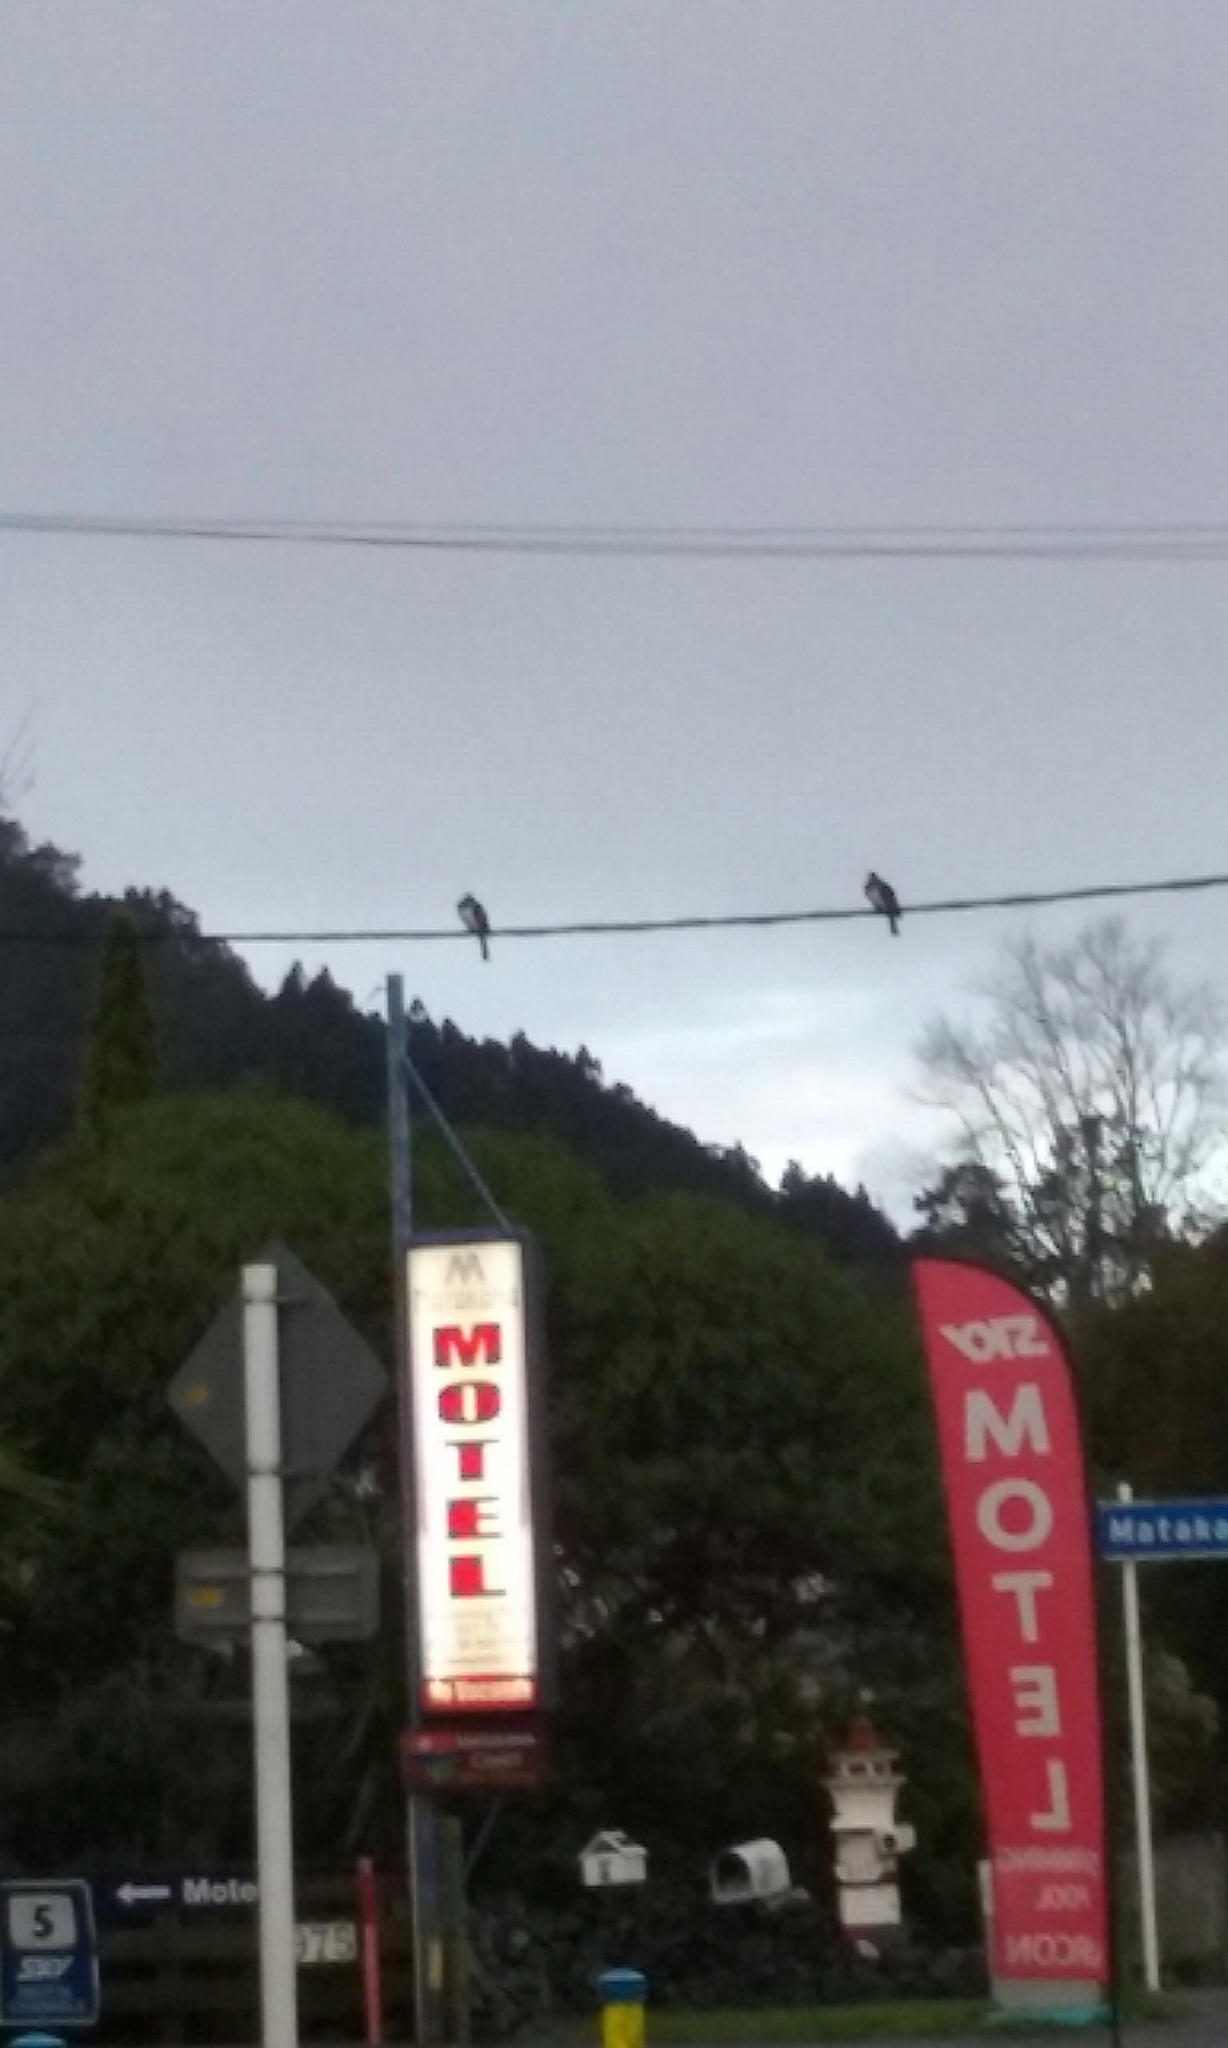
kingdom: Animalia
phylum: Chordata
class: Aves
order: Columbiformes
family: Columbidae
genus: Hemiphaga
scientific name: Hemiphaga novaeseelandiae
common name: New zealand pigeon
